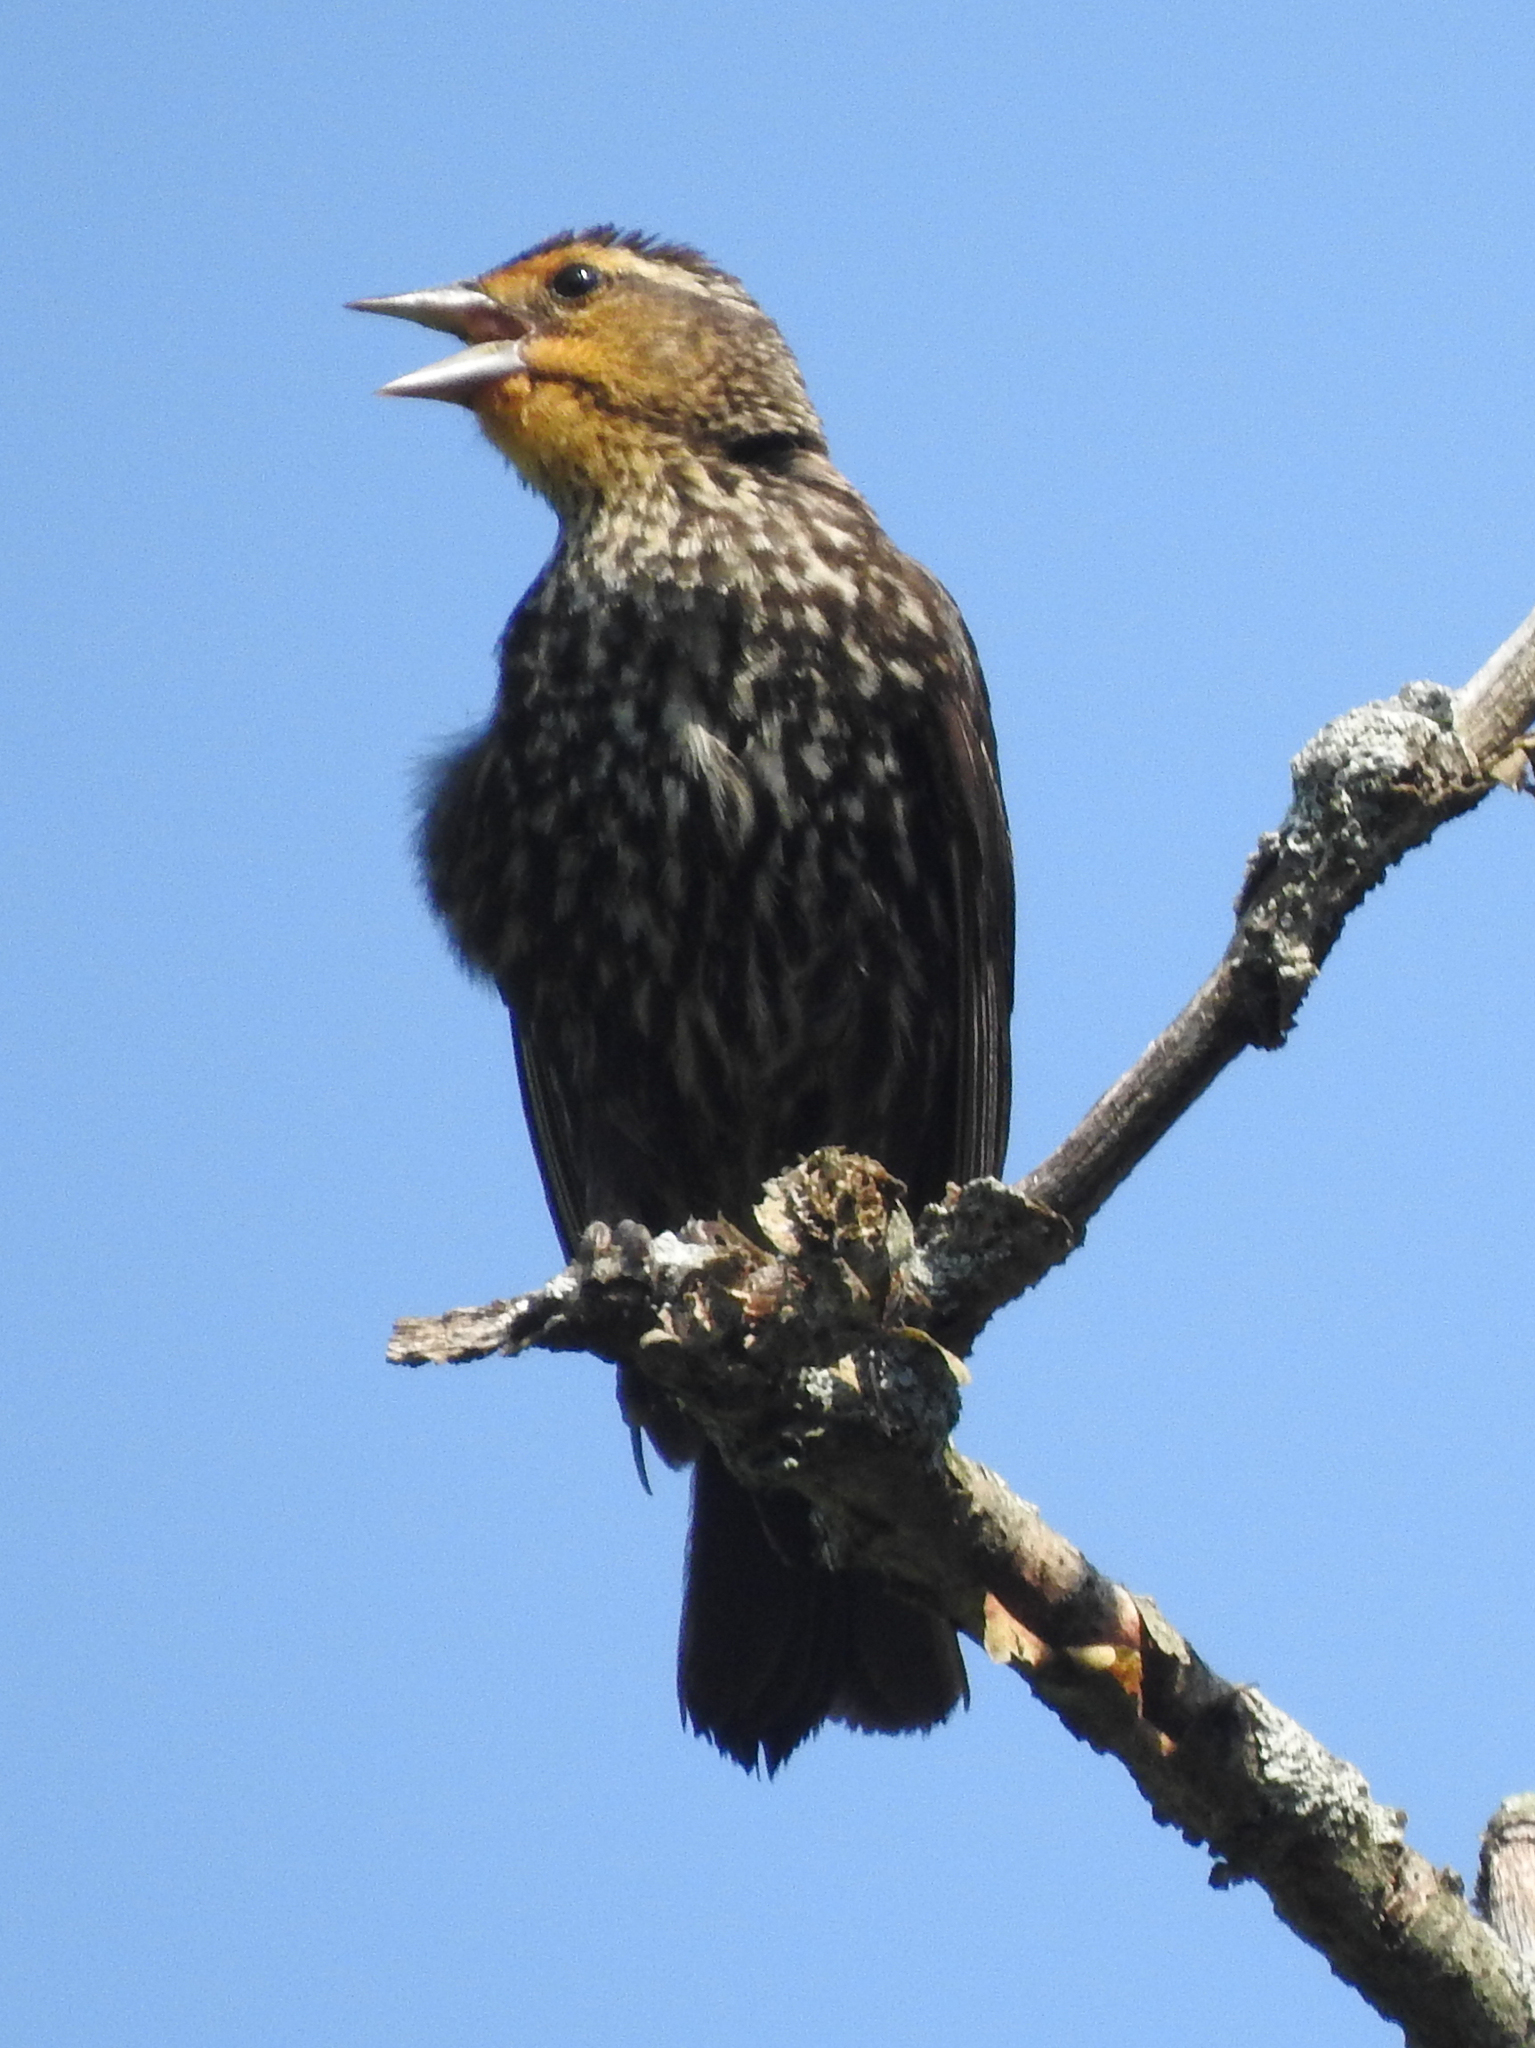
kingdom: Animalia
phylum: Chordata
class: Aves
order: Passeriformes
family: Icteridae
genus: Agelaius
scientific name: Agelaius phoeniceus
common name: Red-winged blackbird
